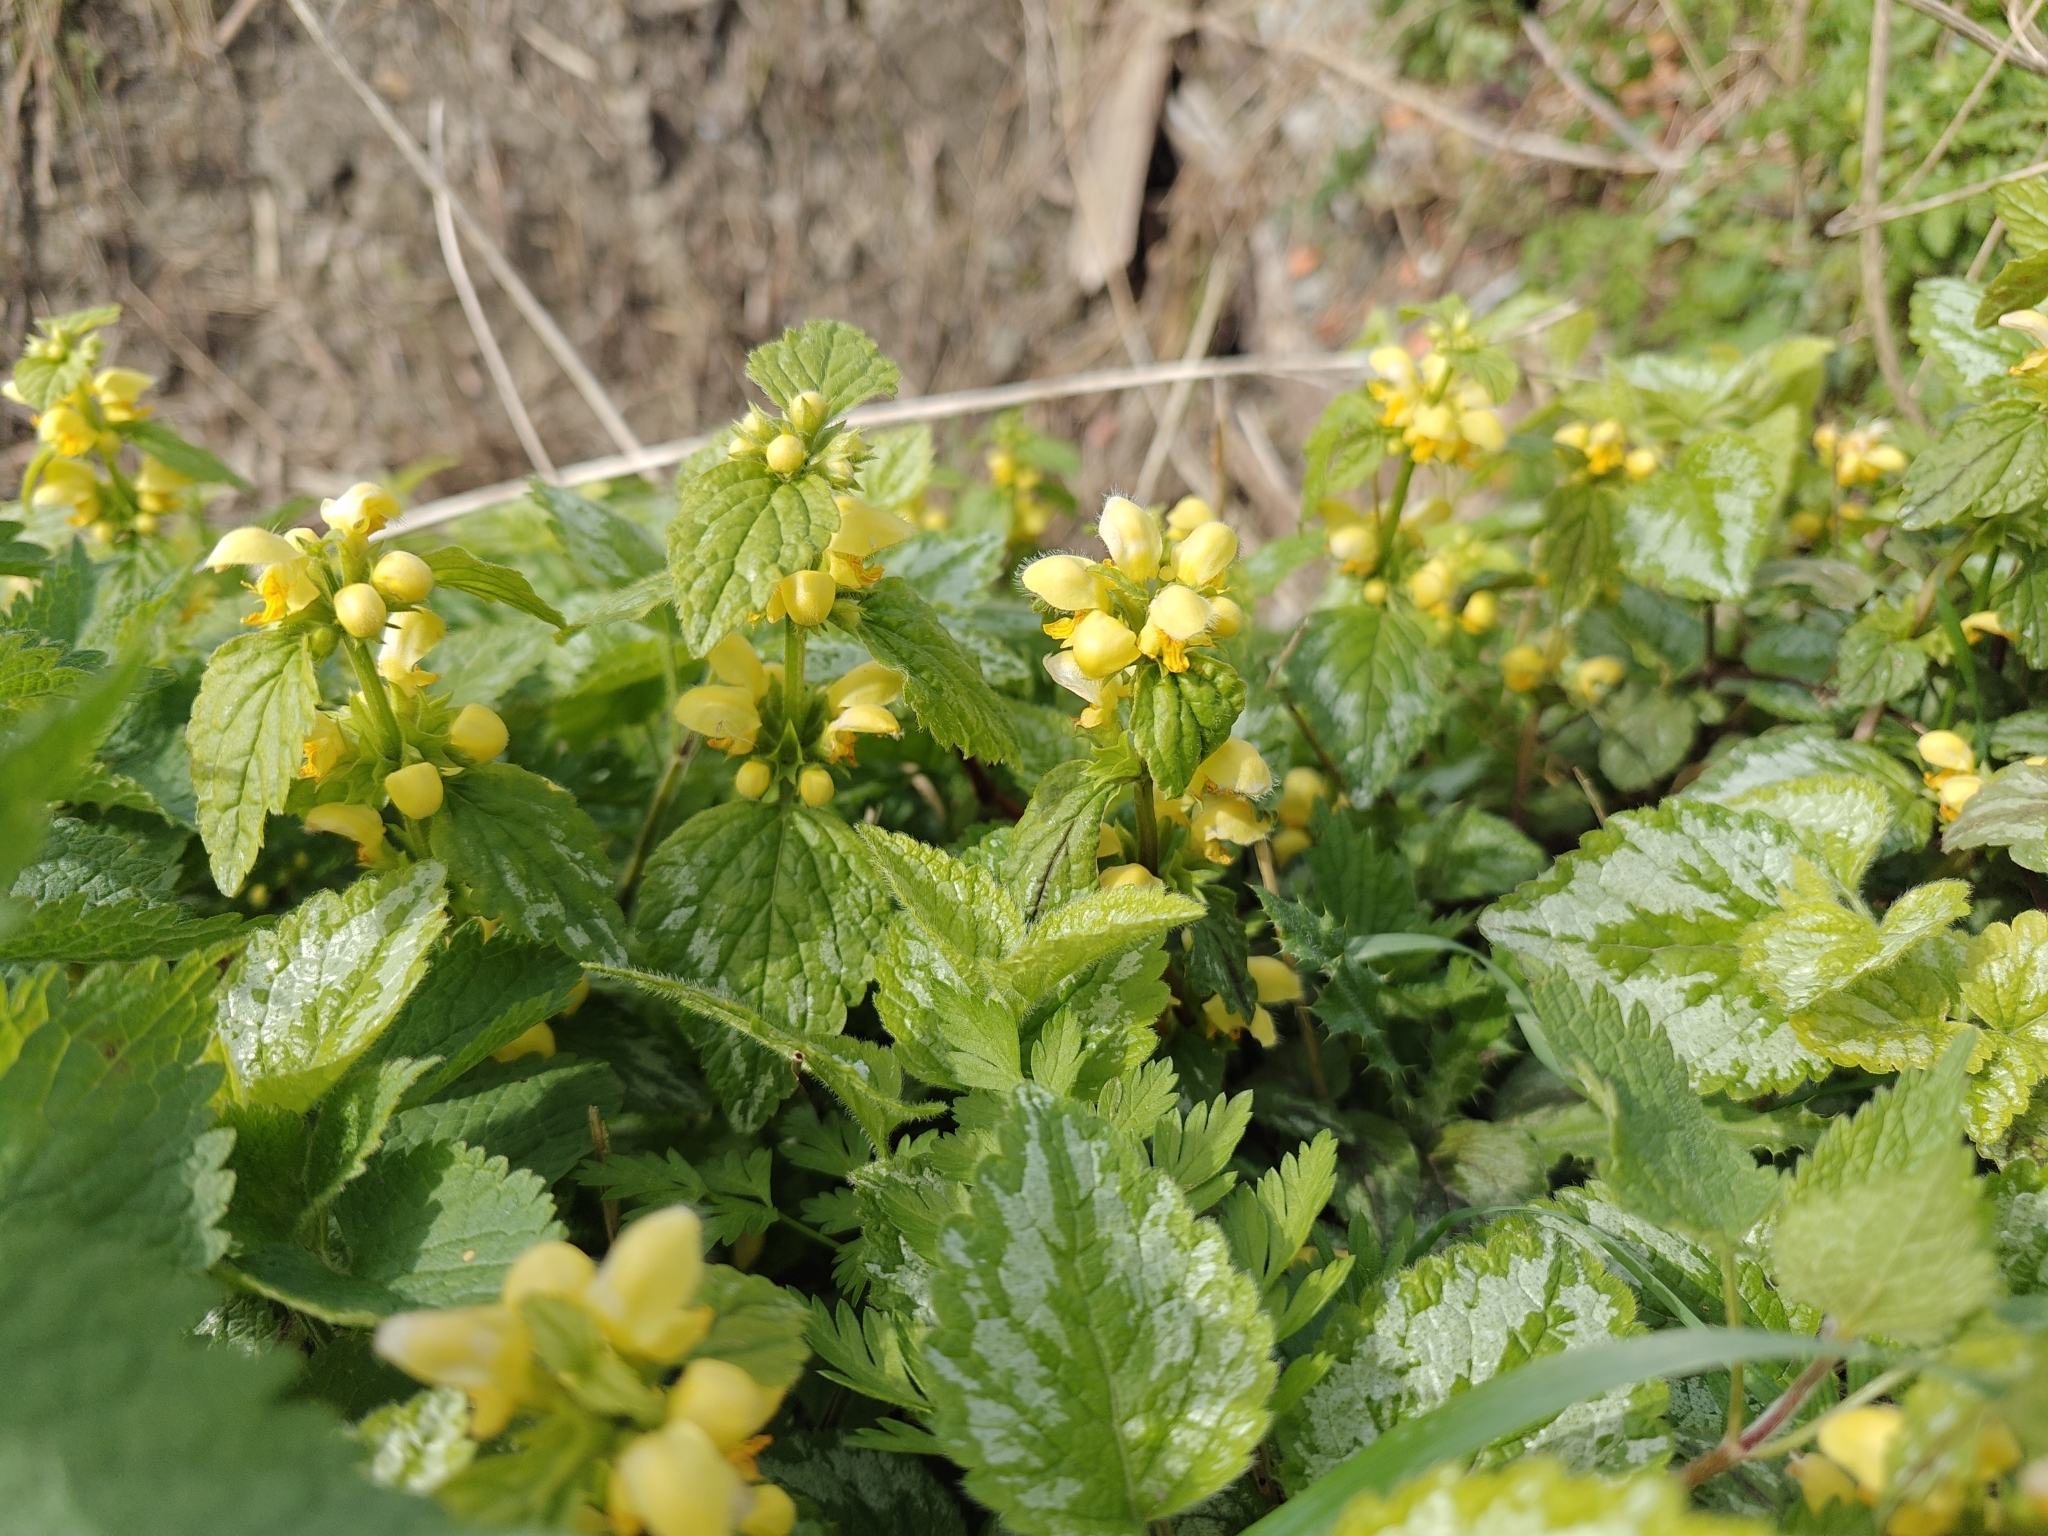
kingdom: Plantae
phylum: Tracheophyta
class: Magnoliopsida
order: Lamiales
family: Lamiaceae
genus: Lamium
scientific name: Lamium galeobdolon
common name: Yellow archangel
